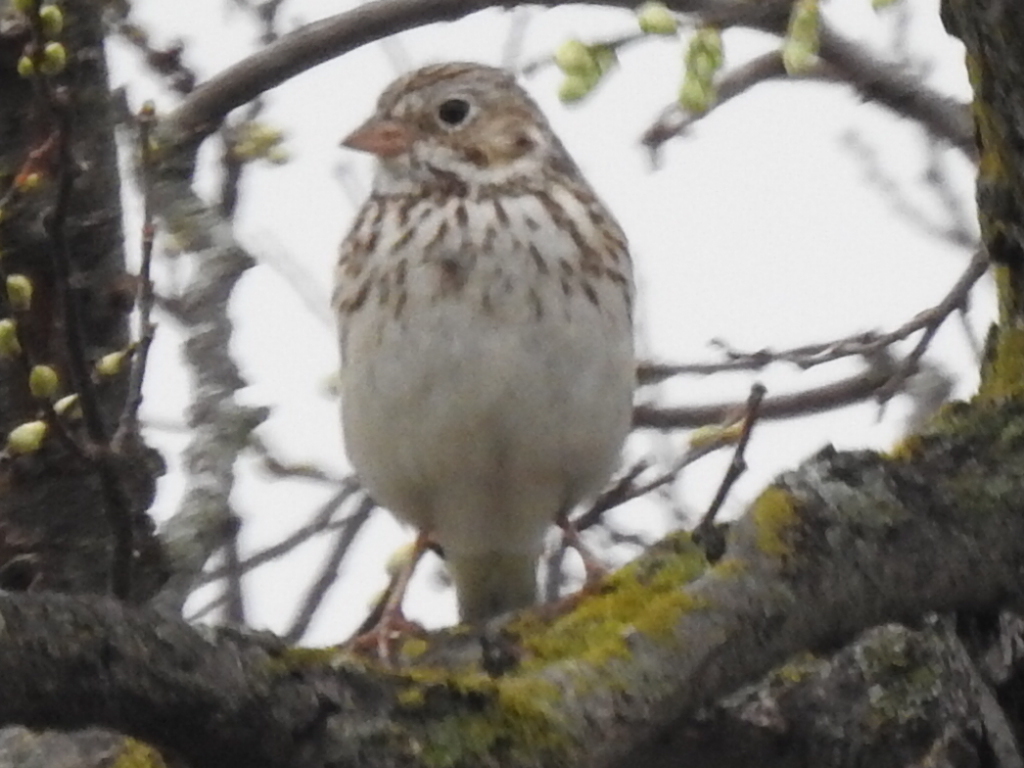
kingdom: Animalia
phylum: Chordata
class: Aves
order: Passeriformes
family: Passerellidae
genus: Pooecetes
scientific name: Pooecetes gramineus
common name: Vesper sparrow
